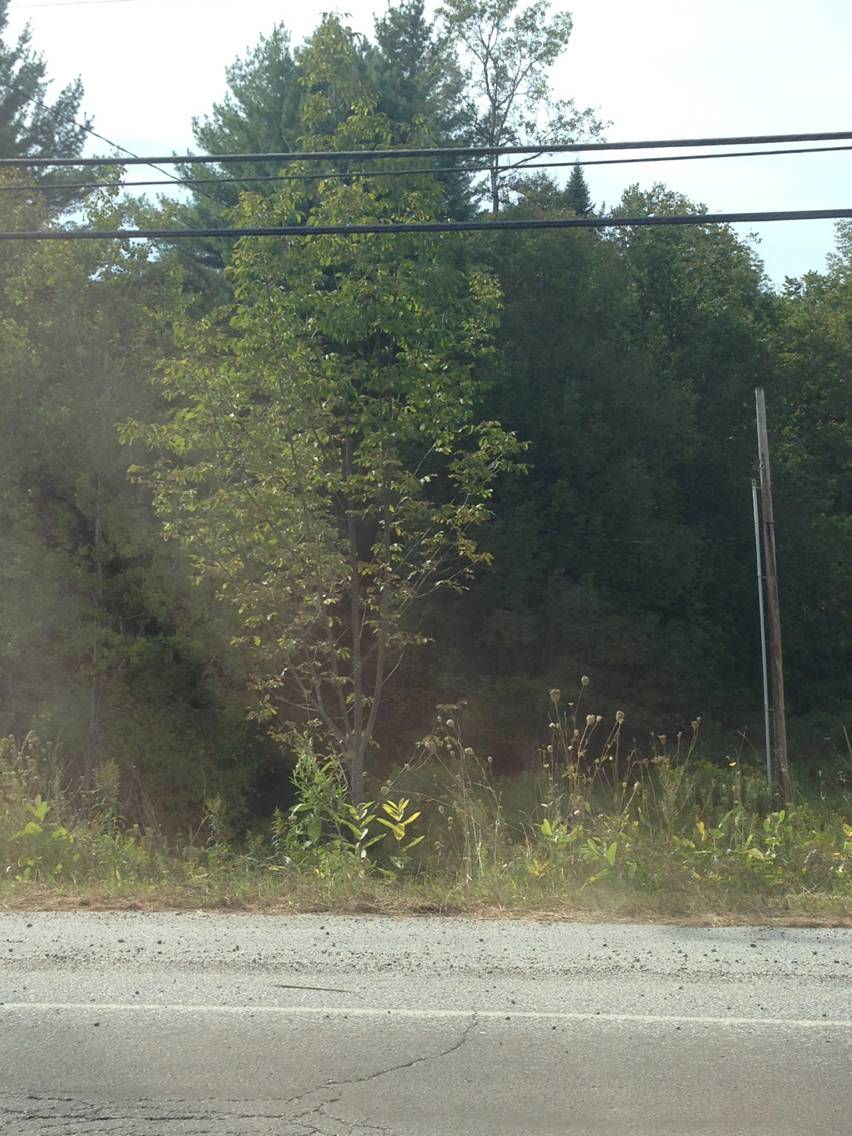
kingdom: Plantae
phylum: Tracheophyta
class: Magnoliopsida
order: Lamiales
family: Oleaceae
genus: Fraxinus
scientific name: Fraxinus americana
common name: White ash
